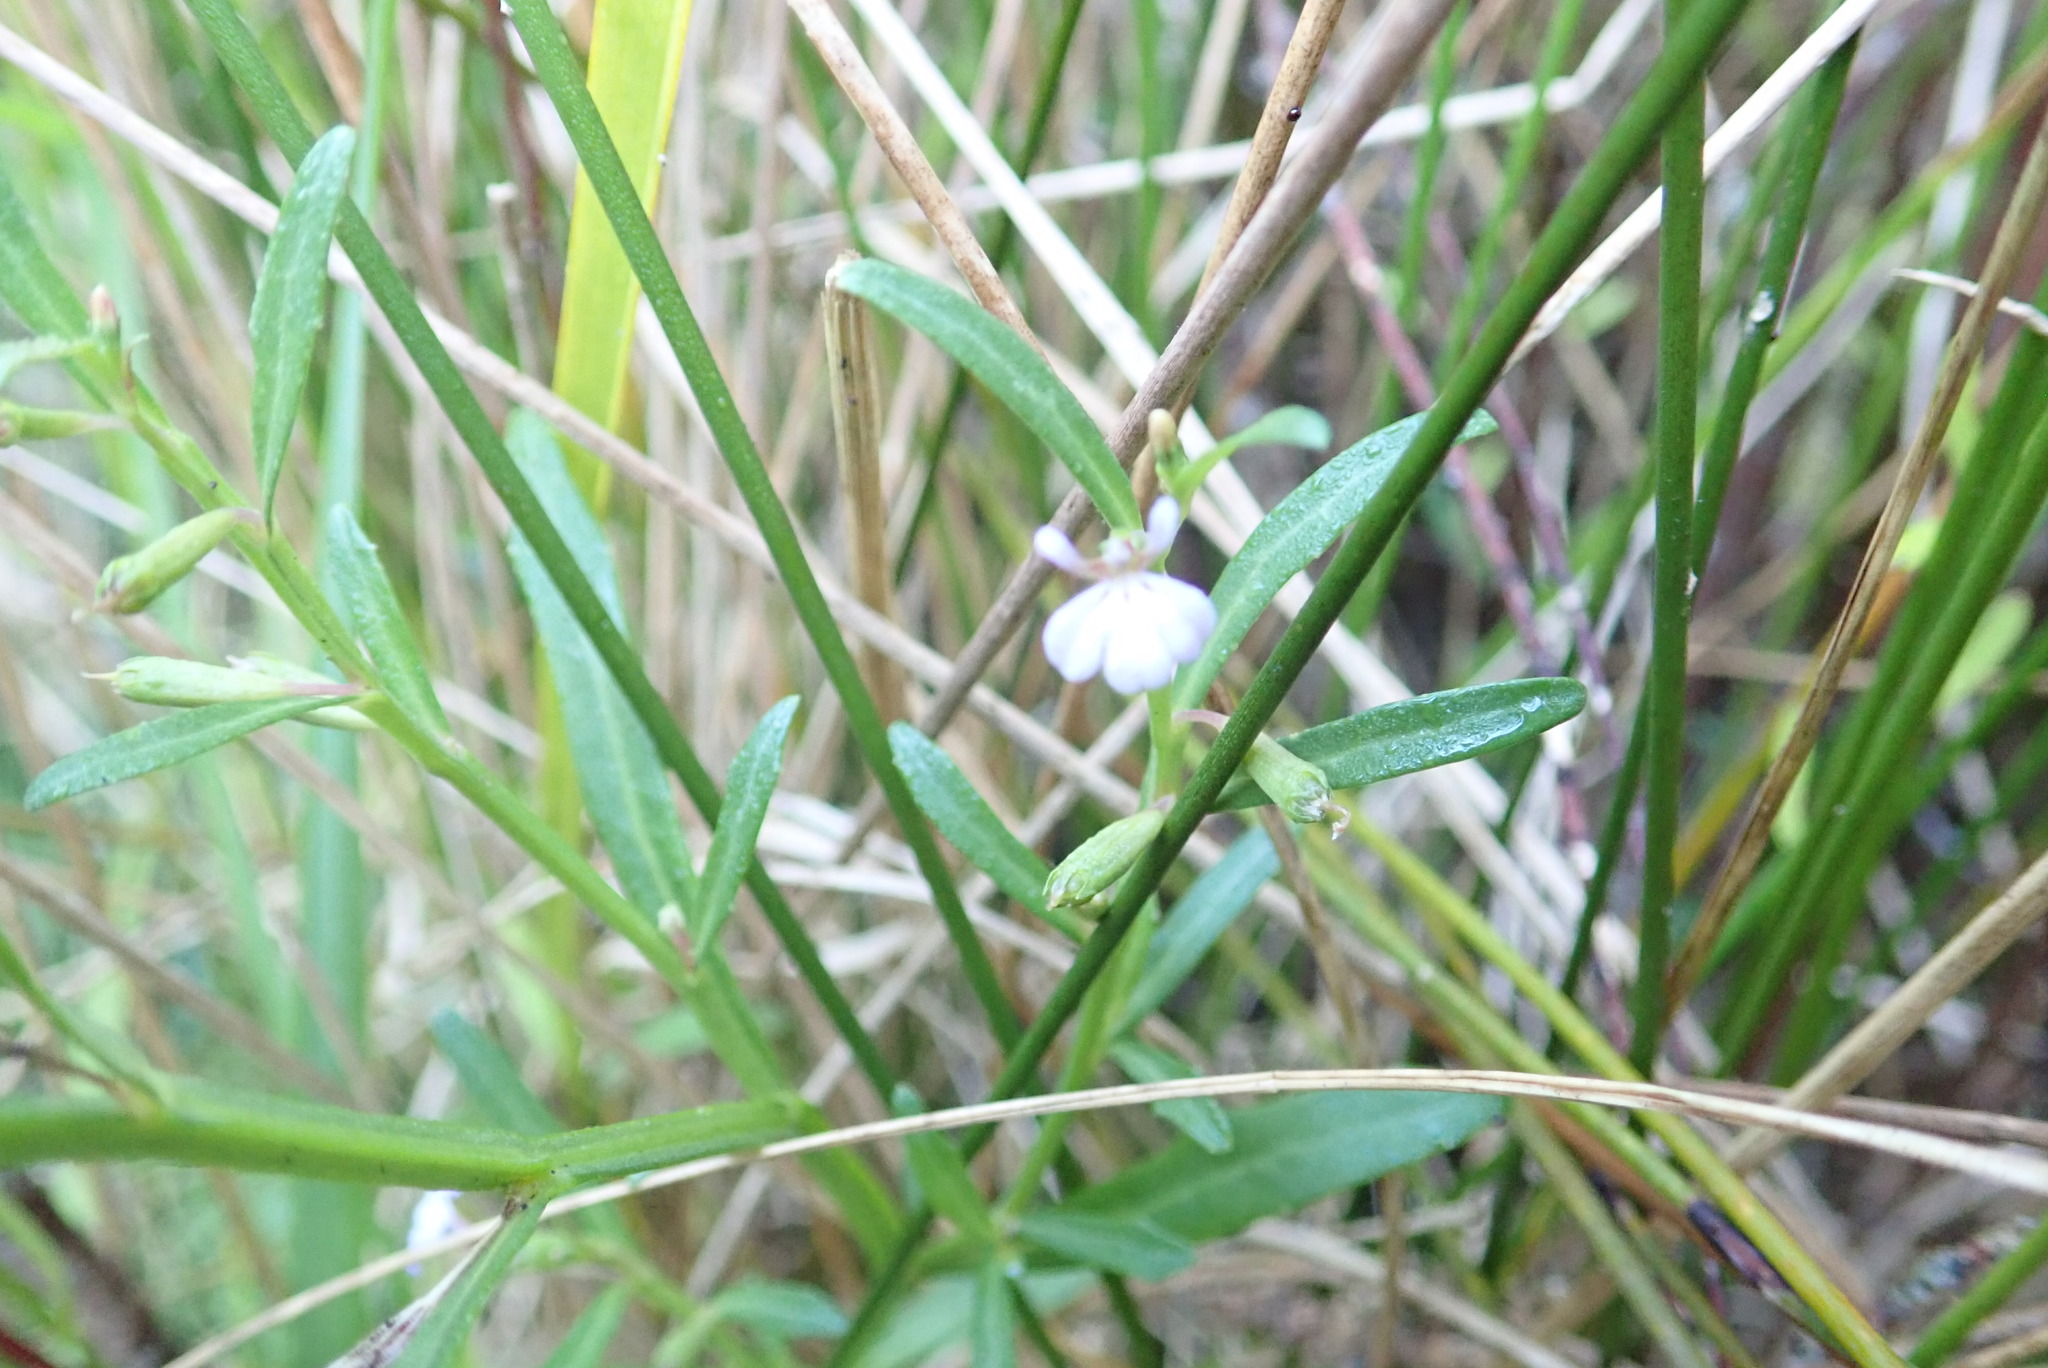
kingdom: Plantae
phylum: Tracheophyta
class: Magnoliopsida
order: Asterales
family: Campanulaceae
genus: Lobelia
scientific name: Lobelia anceps
